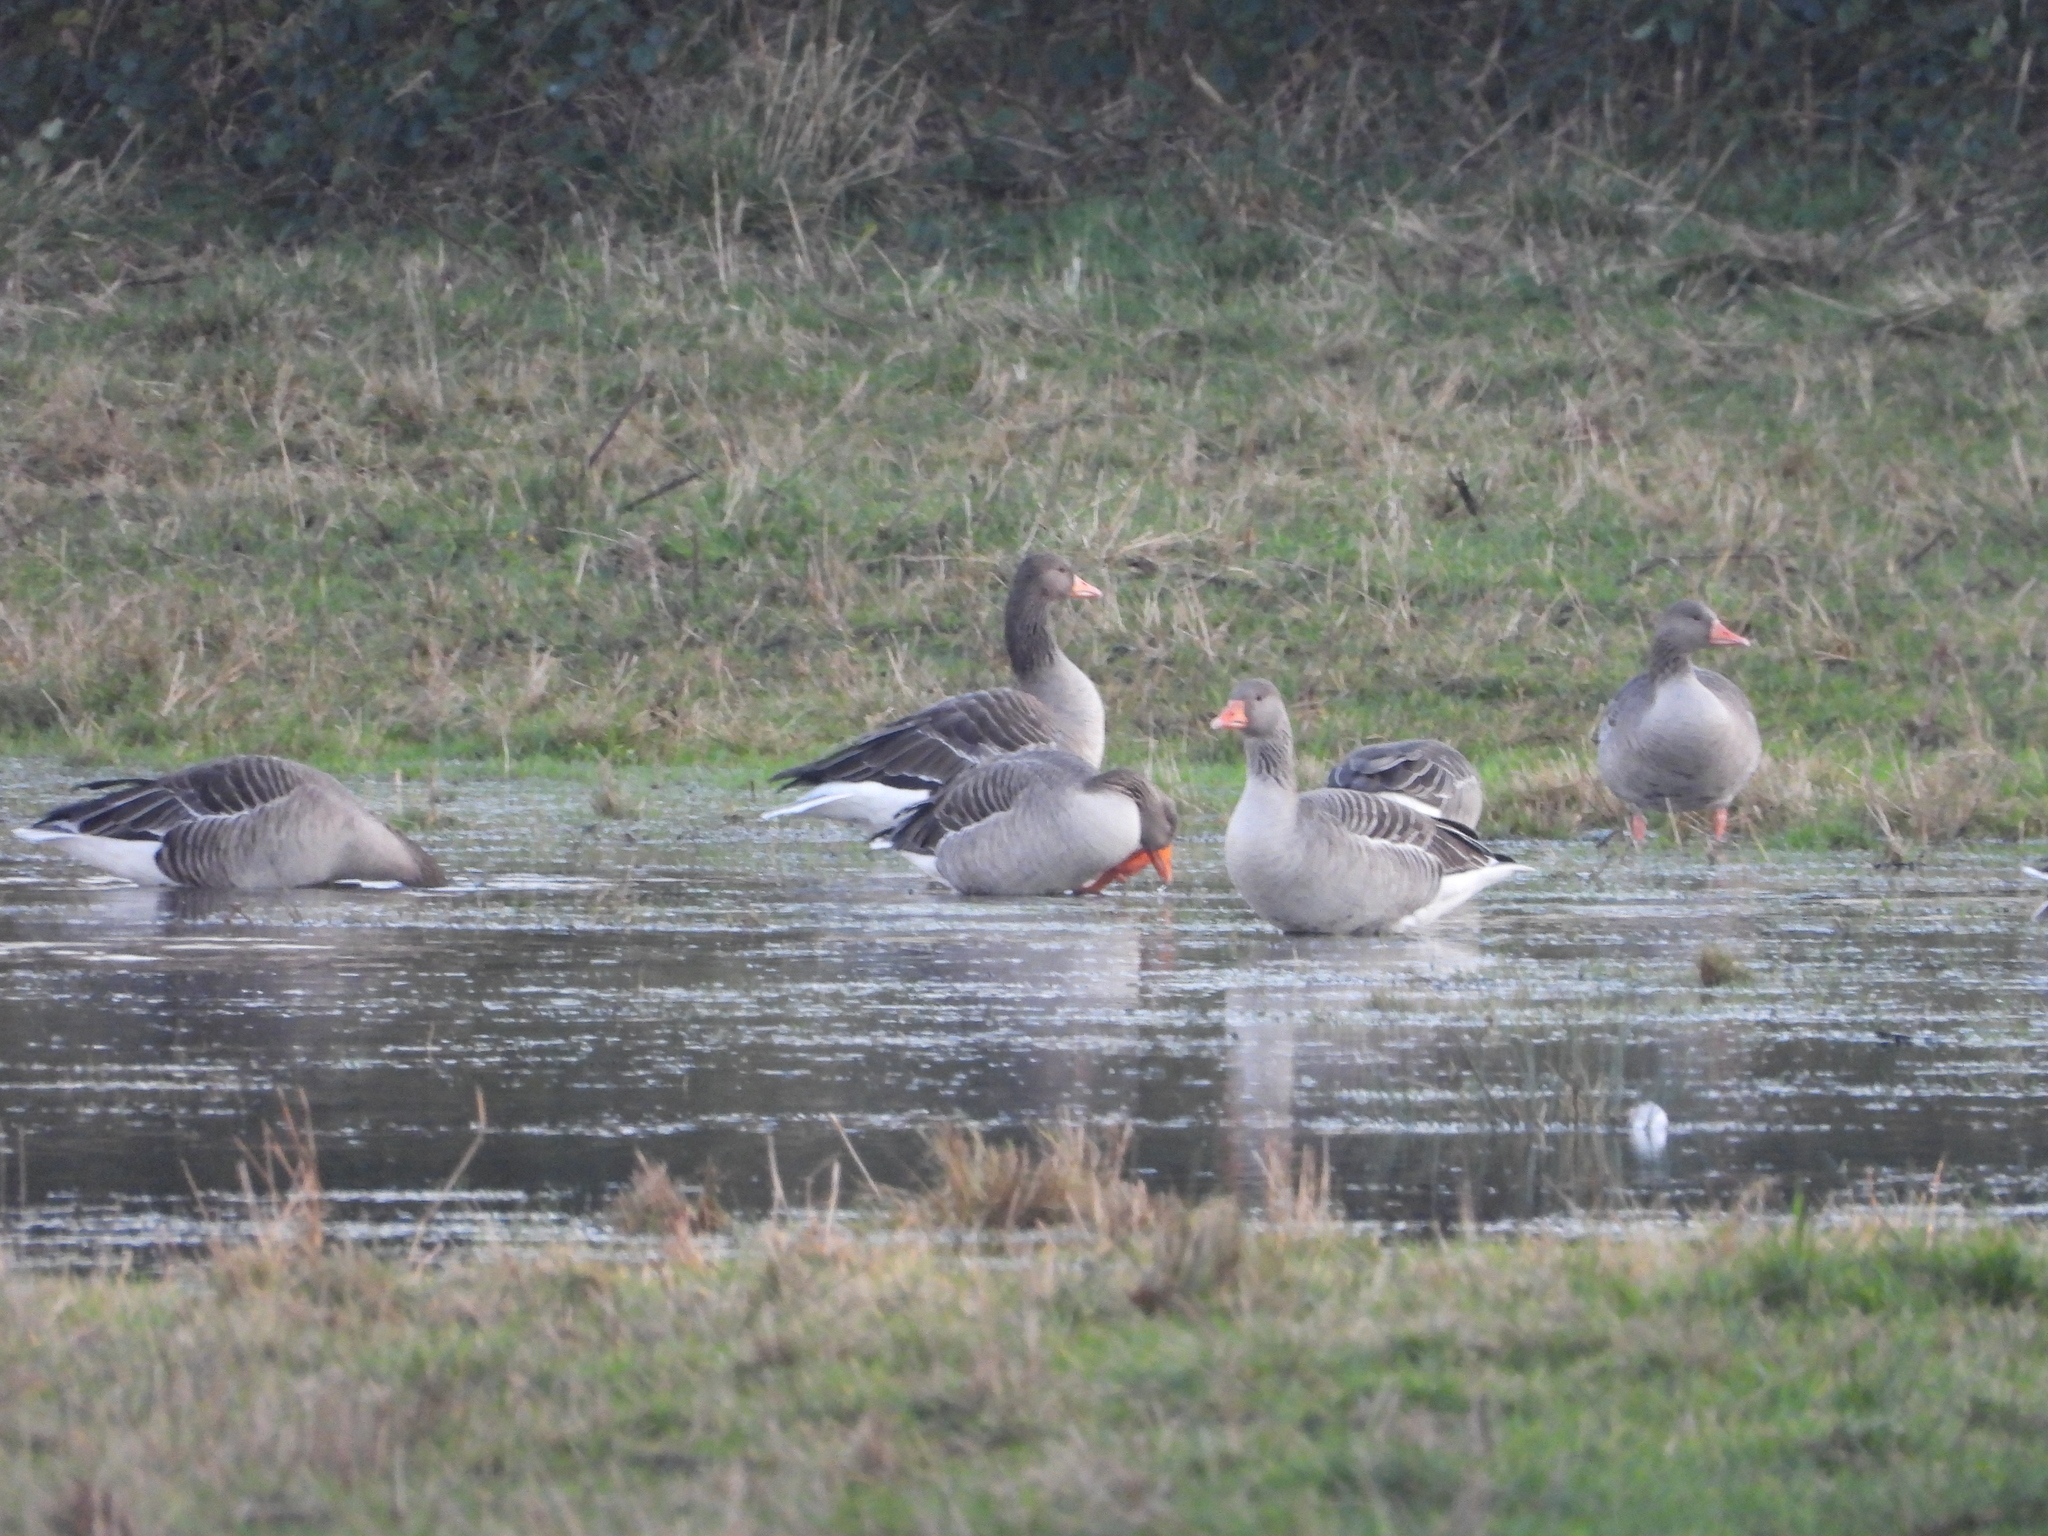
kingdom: Animalia
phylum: Chordata
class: Aves
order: Anseriformes
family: Anatidae
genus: Anser
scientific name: Anser anser
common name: Greylag goose
